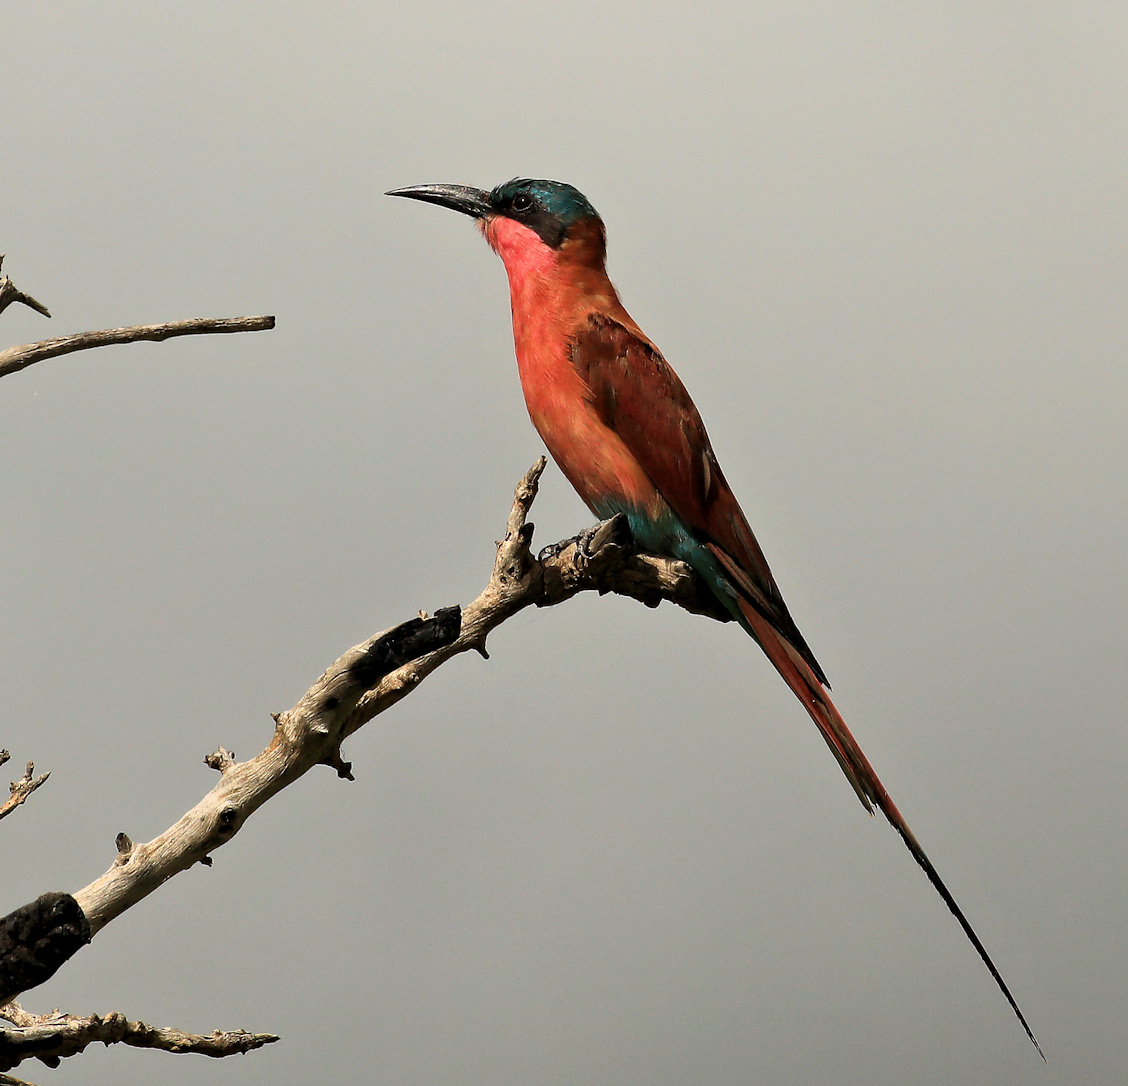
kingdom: Animalia
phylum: Chordata
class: Aves
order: Coraciiformes
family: Meropidae
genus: Merops
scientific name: Merops nubicoides
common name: Southern carmine bee-eater
